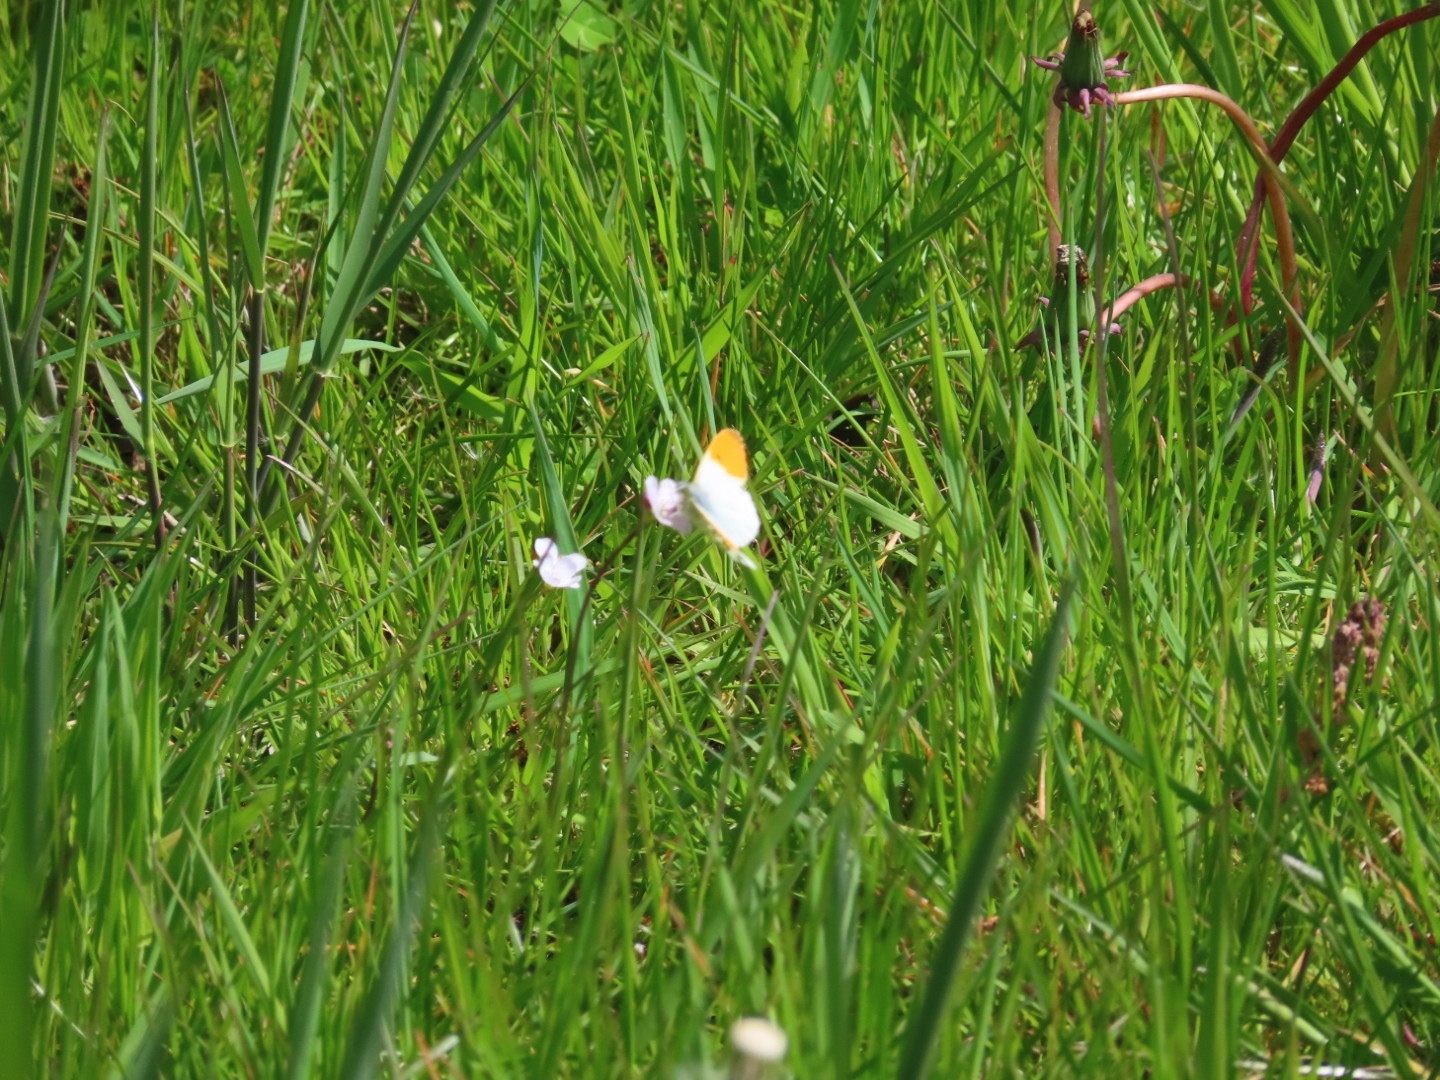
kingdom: Animalia
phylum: Arthropoda
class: Insecta
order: Lepidoptera
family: Pieridae
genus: Anthocharis
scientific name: Anthocharis cardamines
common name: Orange-tip
